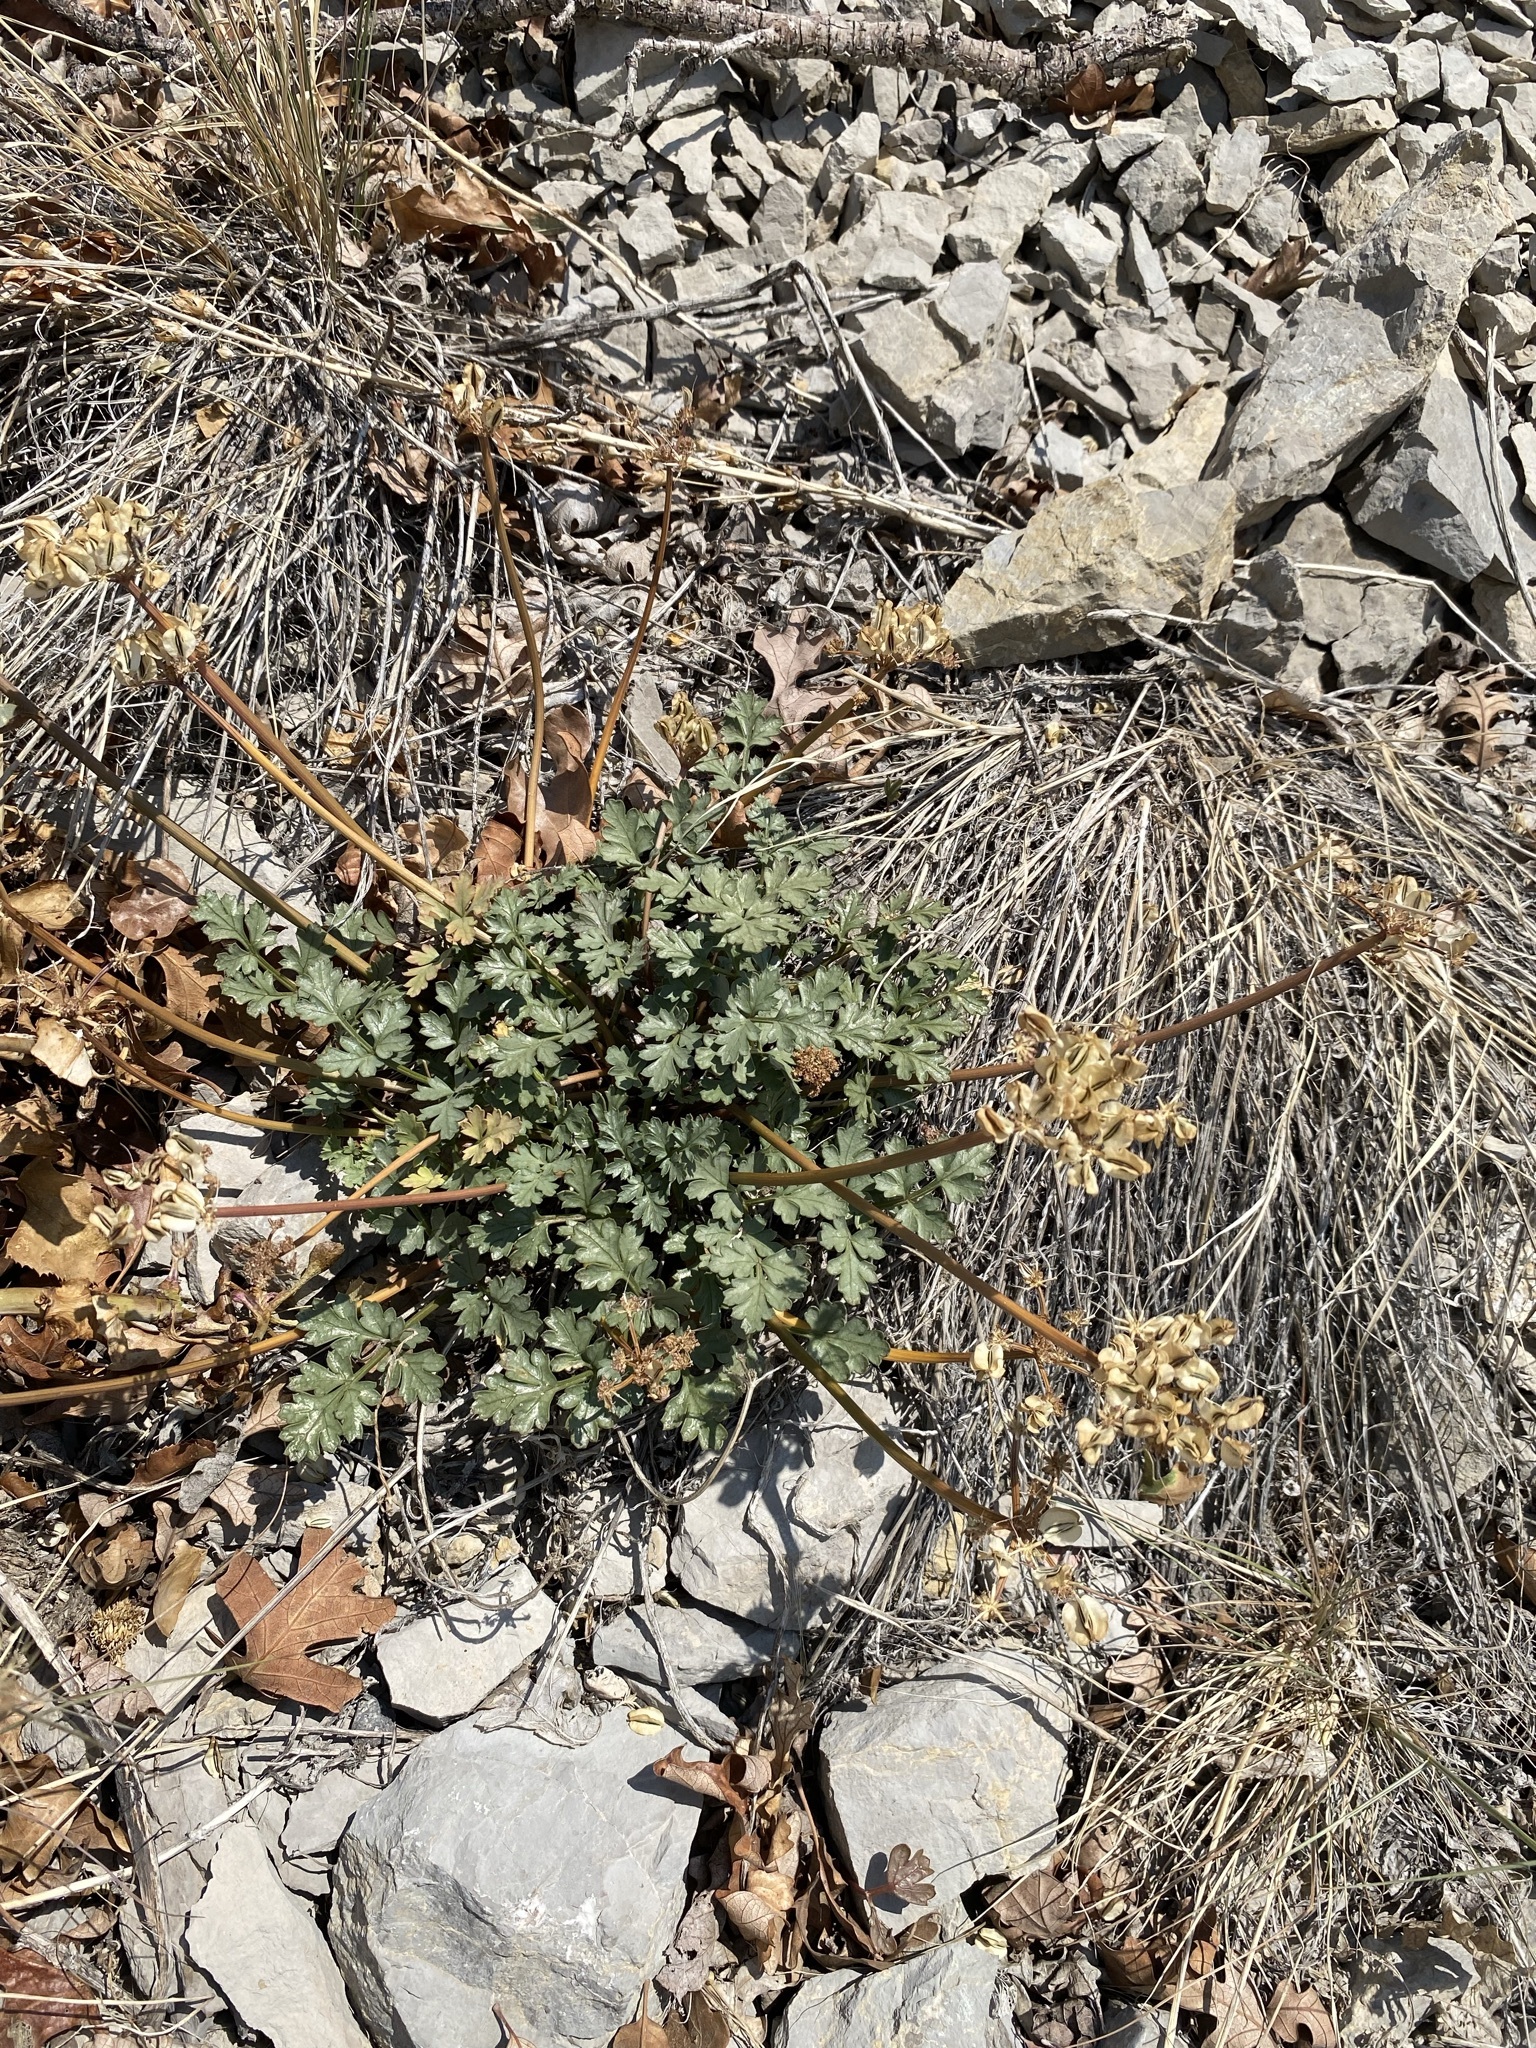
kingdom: Plantae
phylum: Tracheophyta
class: Magnoliopsida
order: Apiales
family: Apiaceae
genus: Aulospermum
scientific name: Aulospermum purpureum
